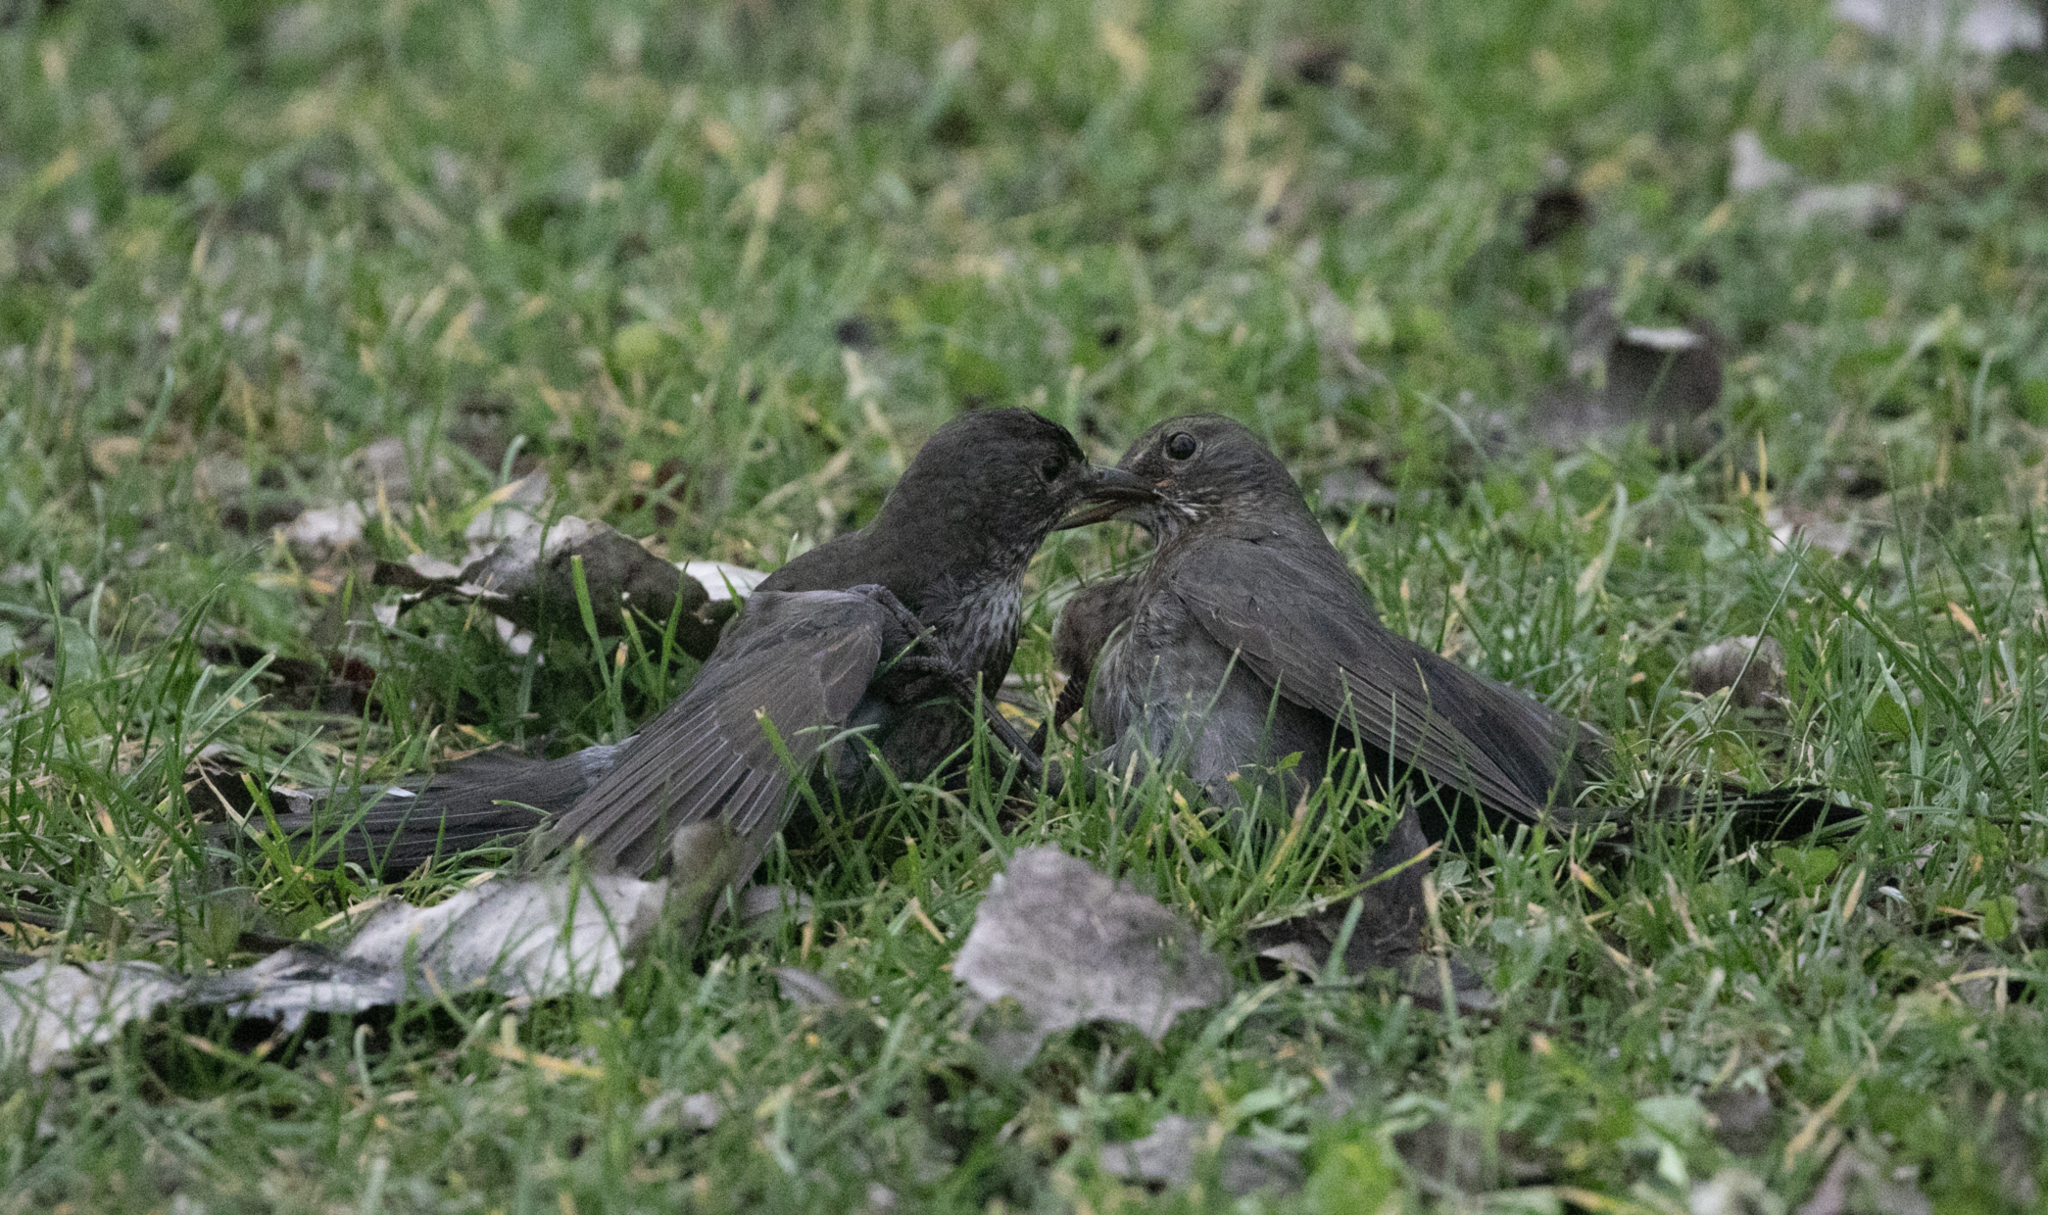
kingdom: Animalia
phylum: Chordata
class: Aves
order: Passeriformes
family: Turdidae
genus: Turdus
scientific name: Turdus merula
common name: Common blackbird
